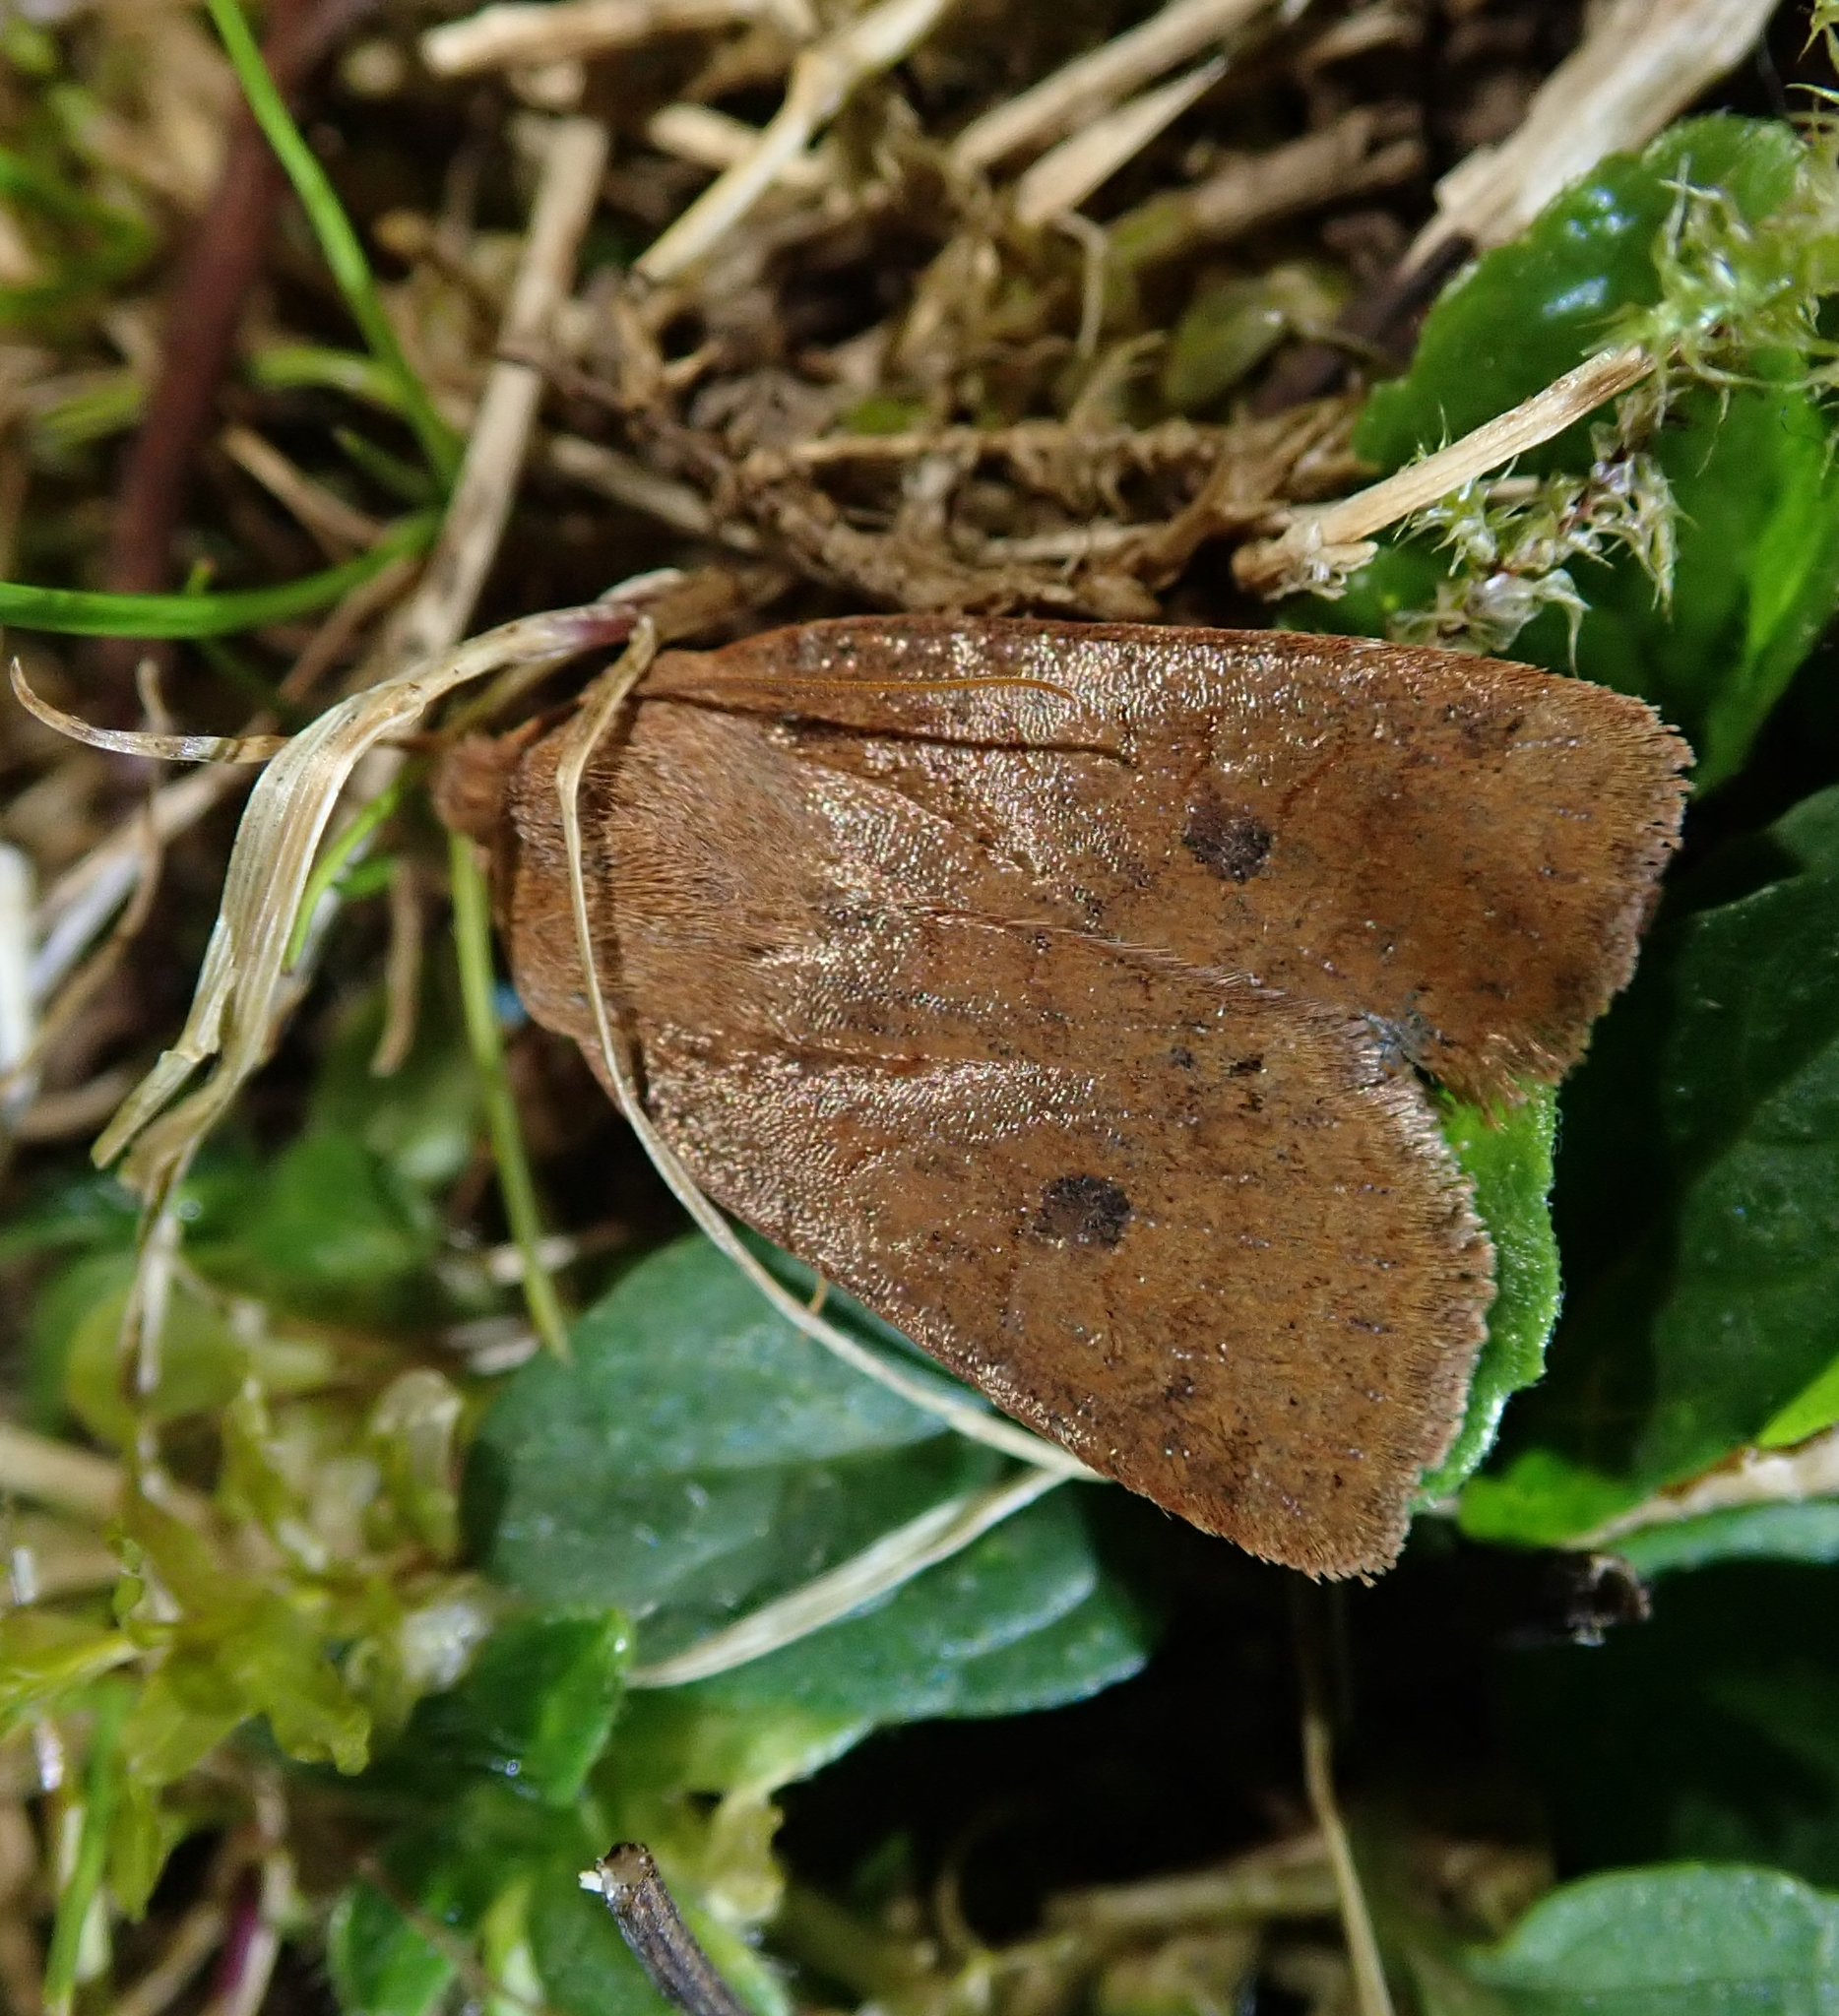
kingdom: Animalia
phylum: Arthropoda
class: Insecta
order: Lepidoptera
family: Noctuidae
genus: Conistra
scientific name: Conistra vaccinii
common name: Chestnut
